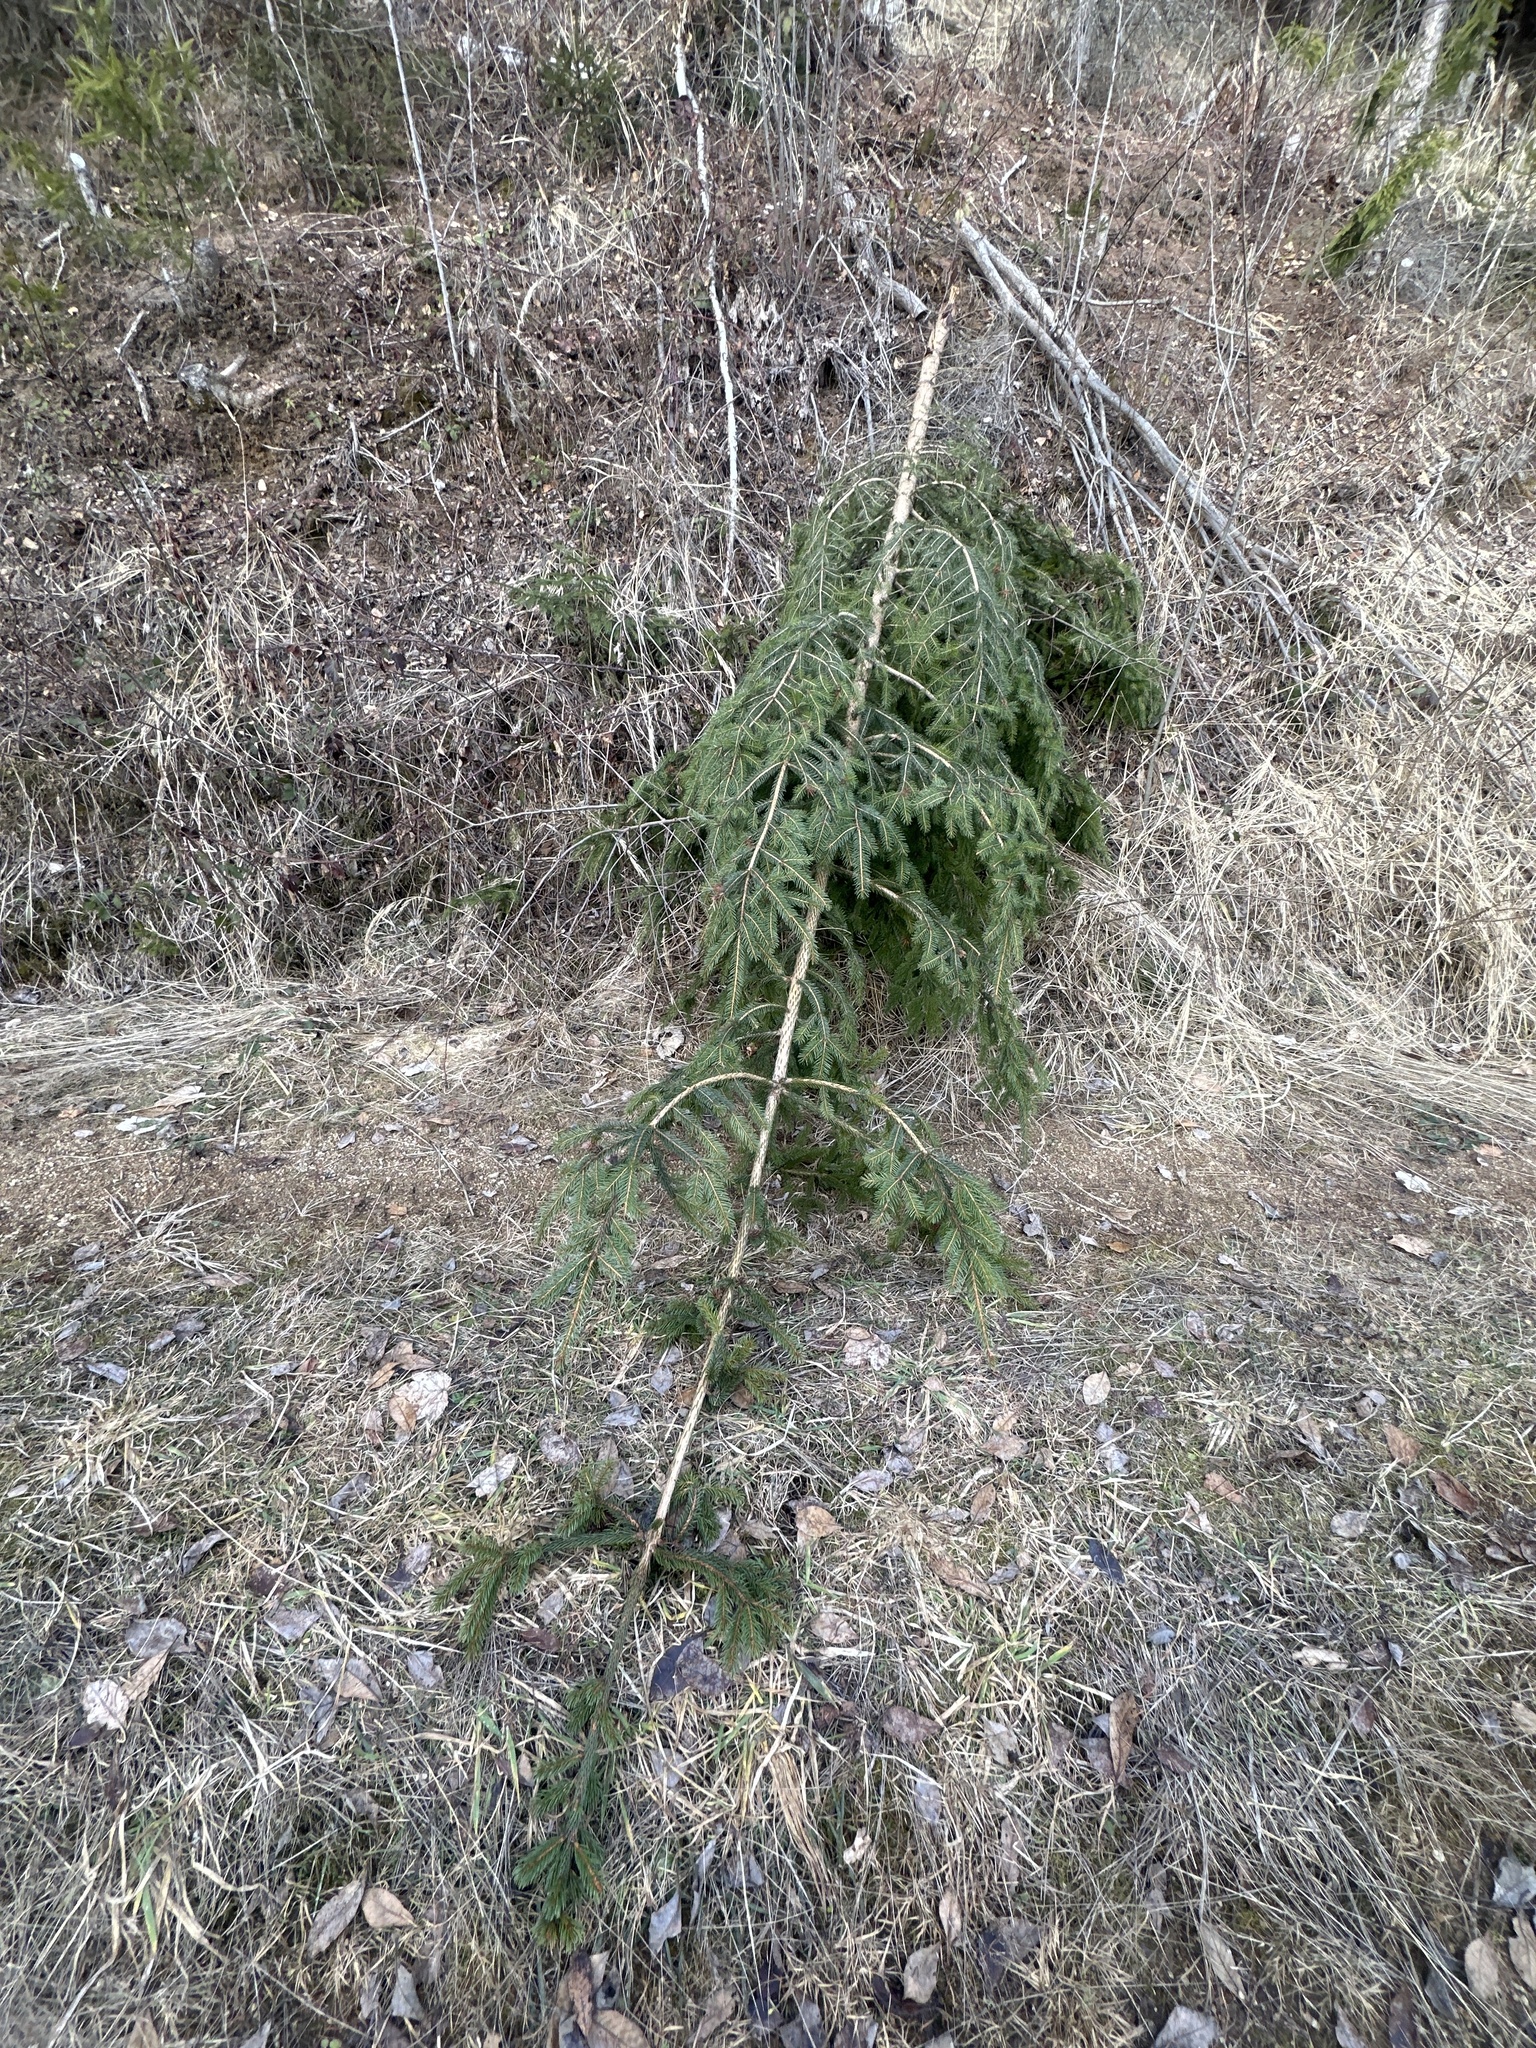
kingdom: Plantae
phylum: Tracheophyta
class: Pinopsida
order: Pinales
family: Pinaceae
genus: Picea
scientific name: Picea abies
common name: Norway spruce
